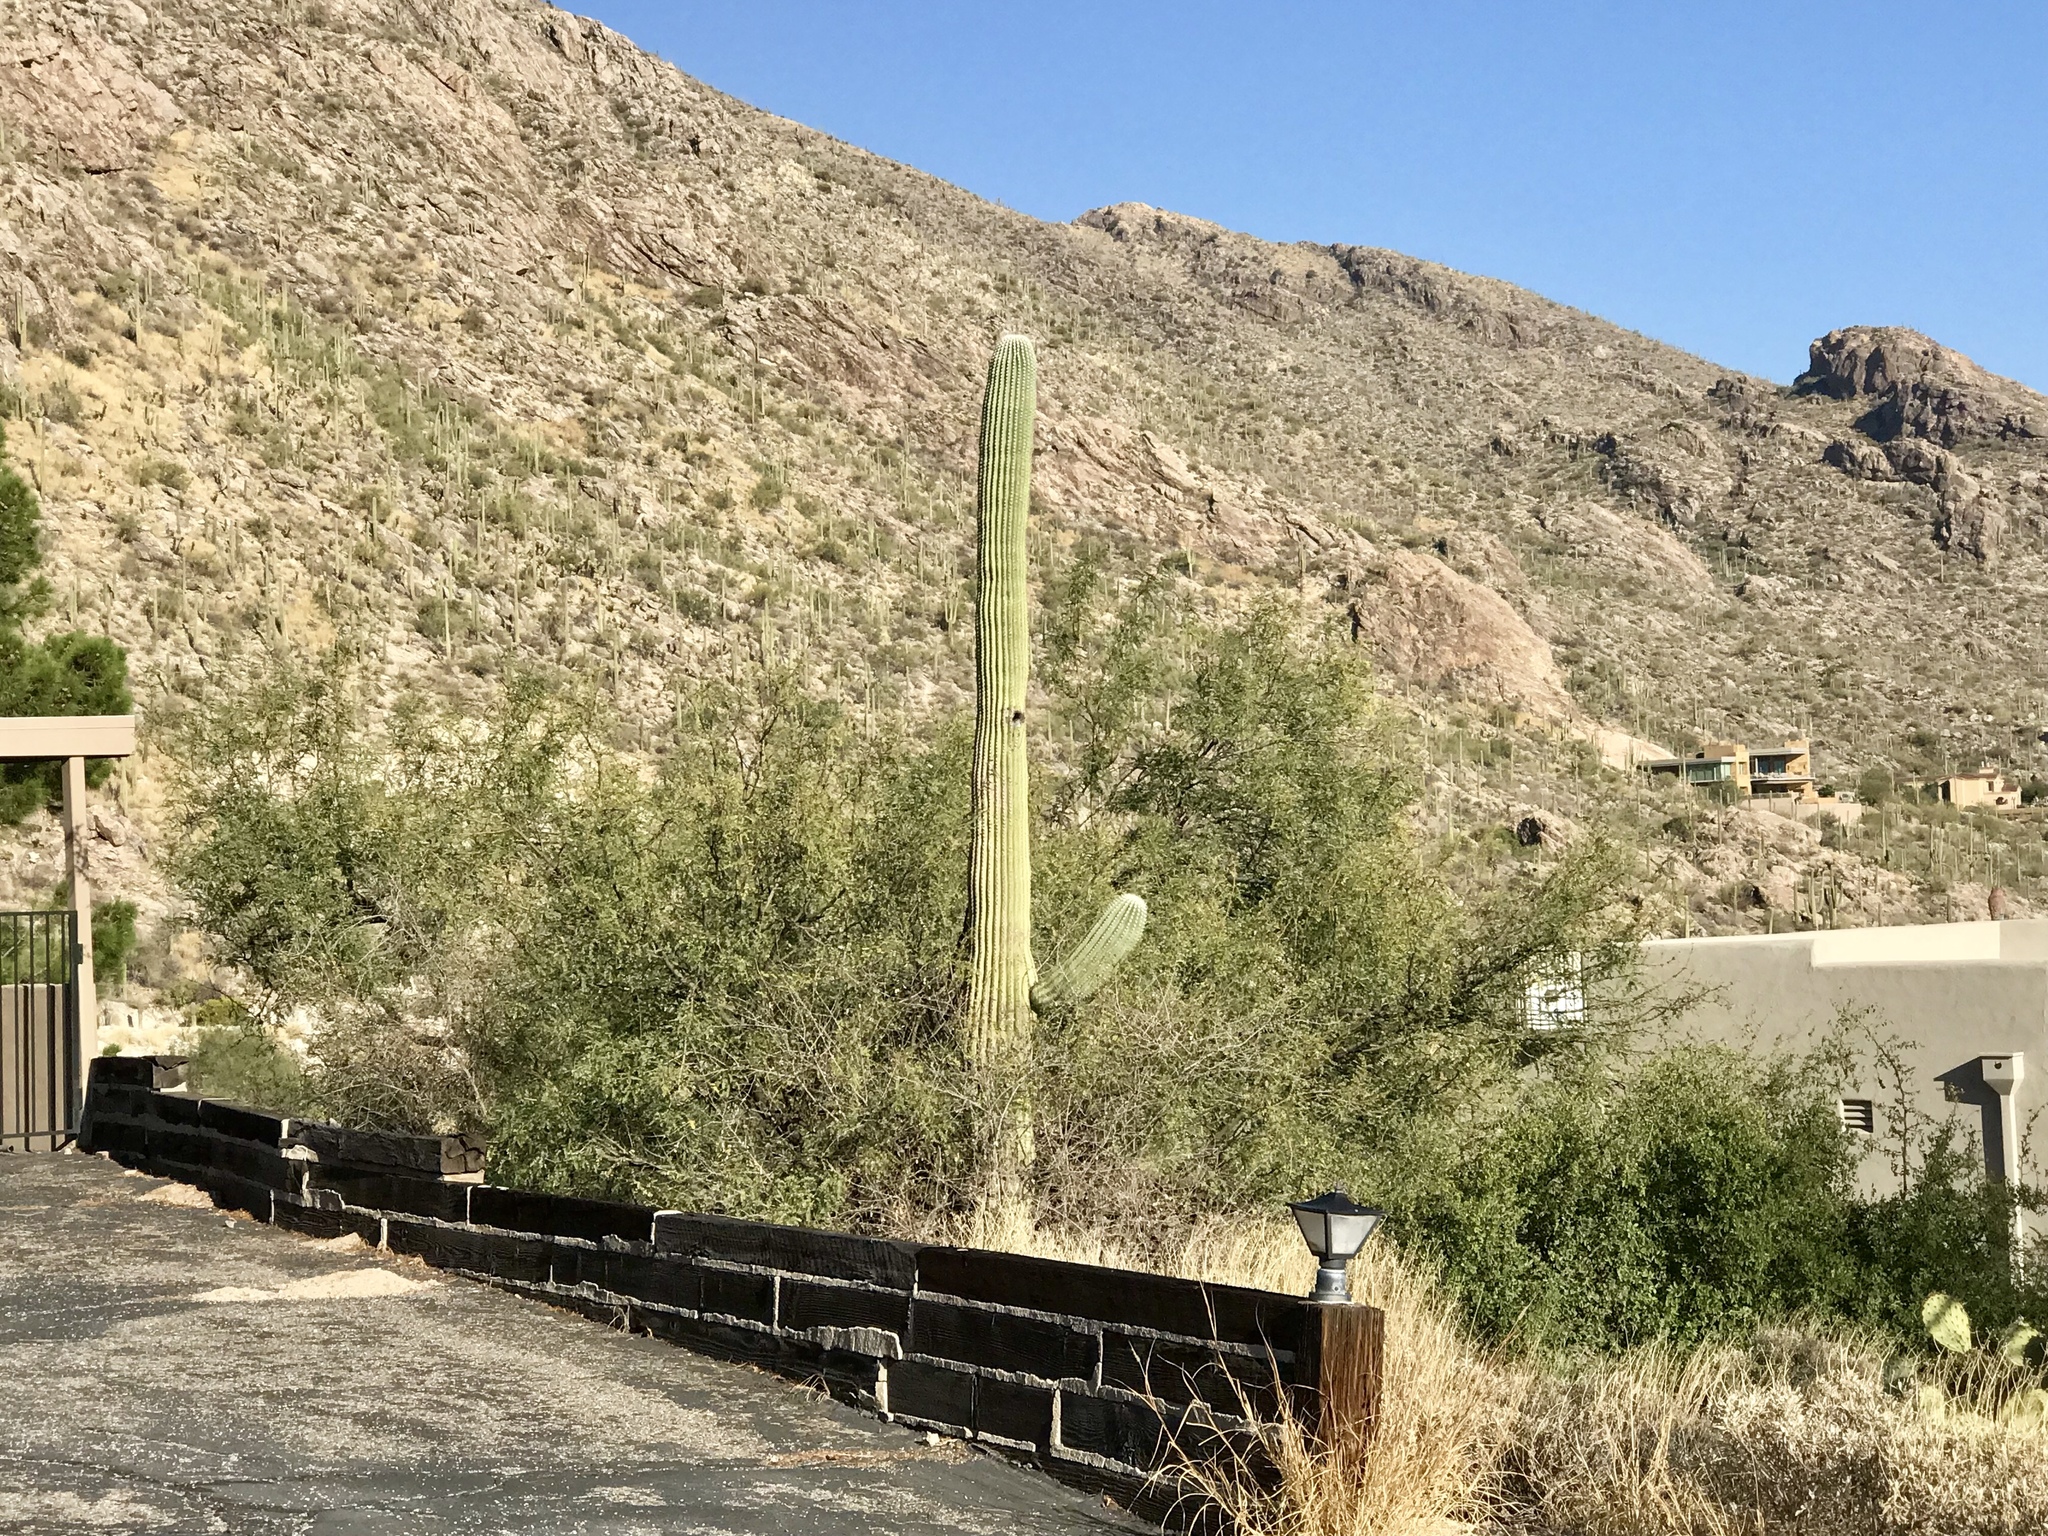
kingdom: Plantae
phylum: Tracheophyta
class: Magnoliopsida
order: Caryophyllales
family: Cactaceae
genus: Carnegiea
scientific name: Carnegiea gigantea
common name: Saguaro
